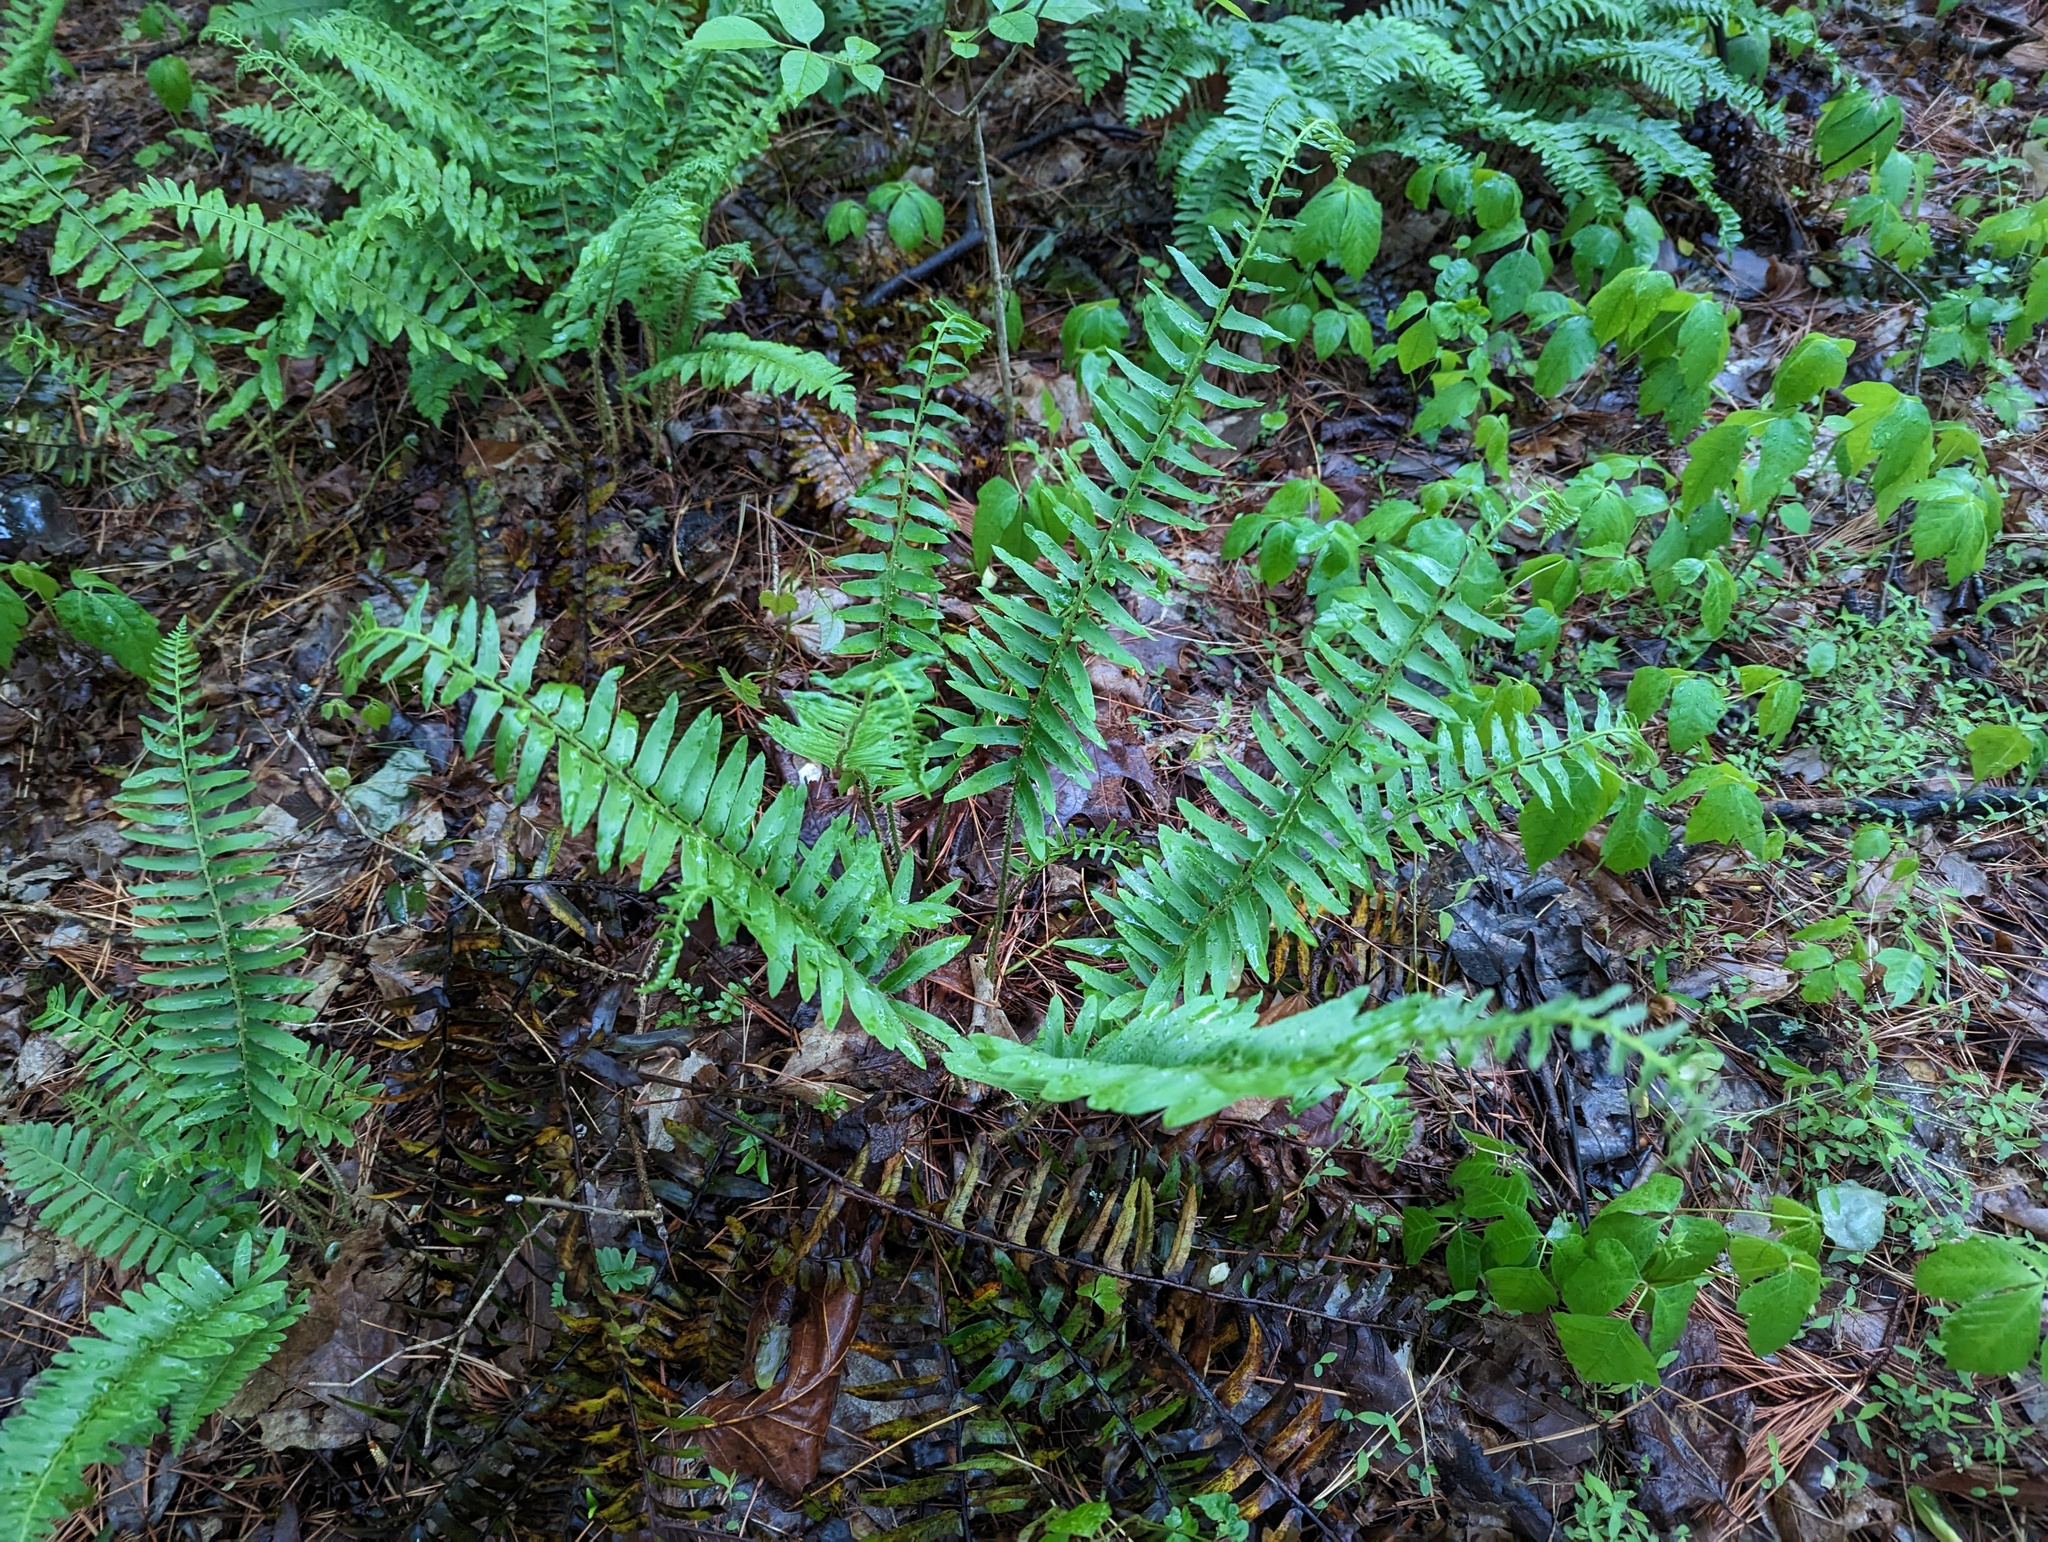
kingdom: Plantae
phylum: Tracheophyta
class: Polypodiopsida
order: Polypodiales
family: Dryopteridaceae
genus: Polystichum
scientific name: Polystichum acrostichoides
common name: Christmas fern
